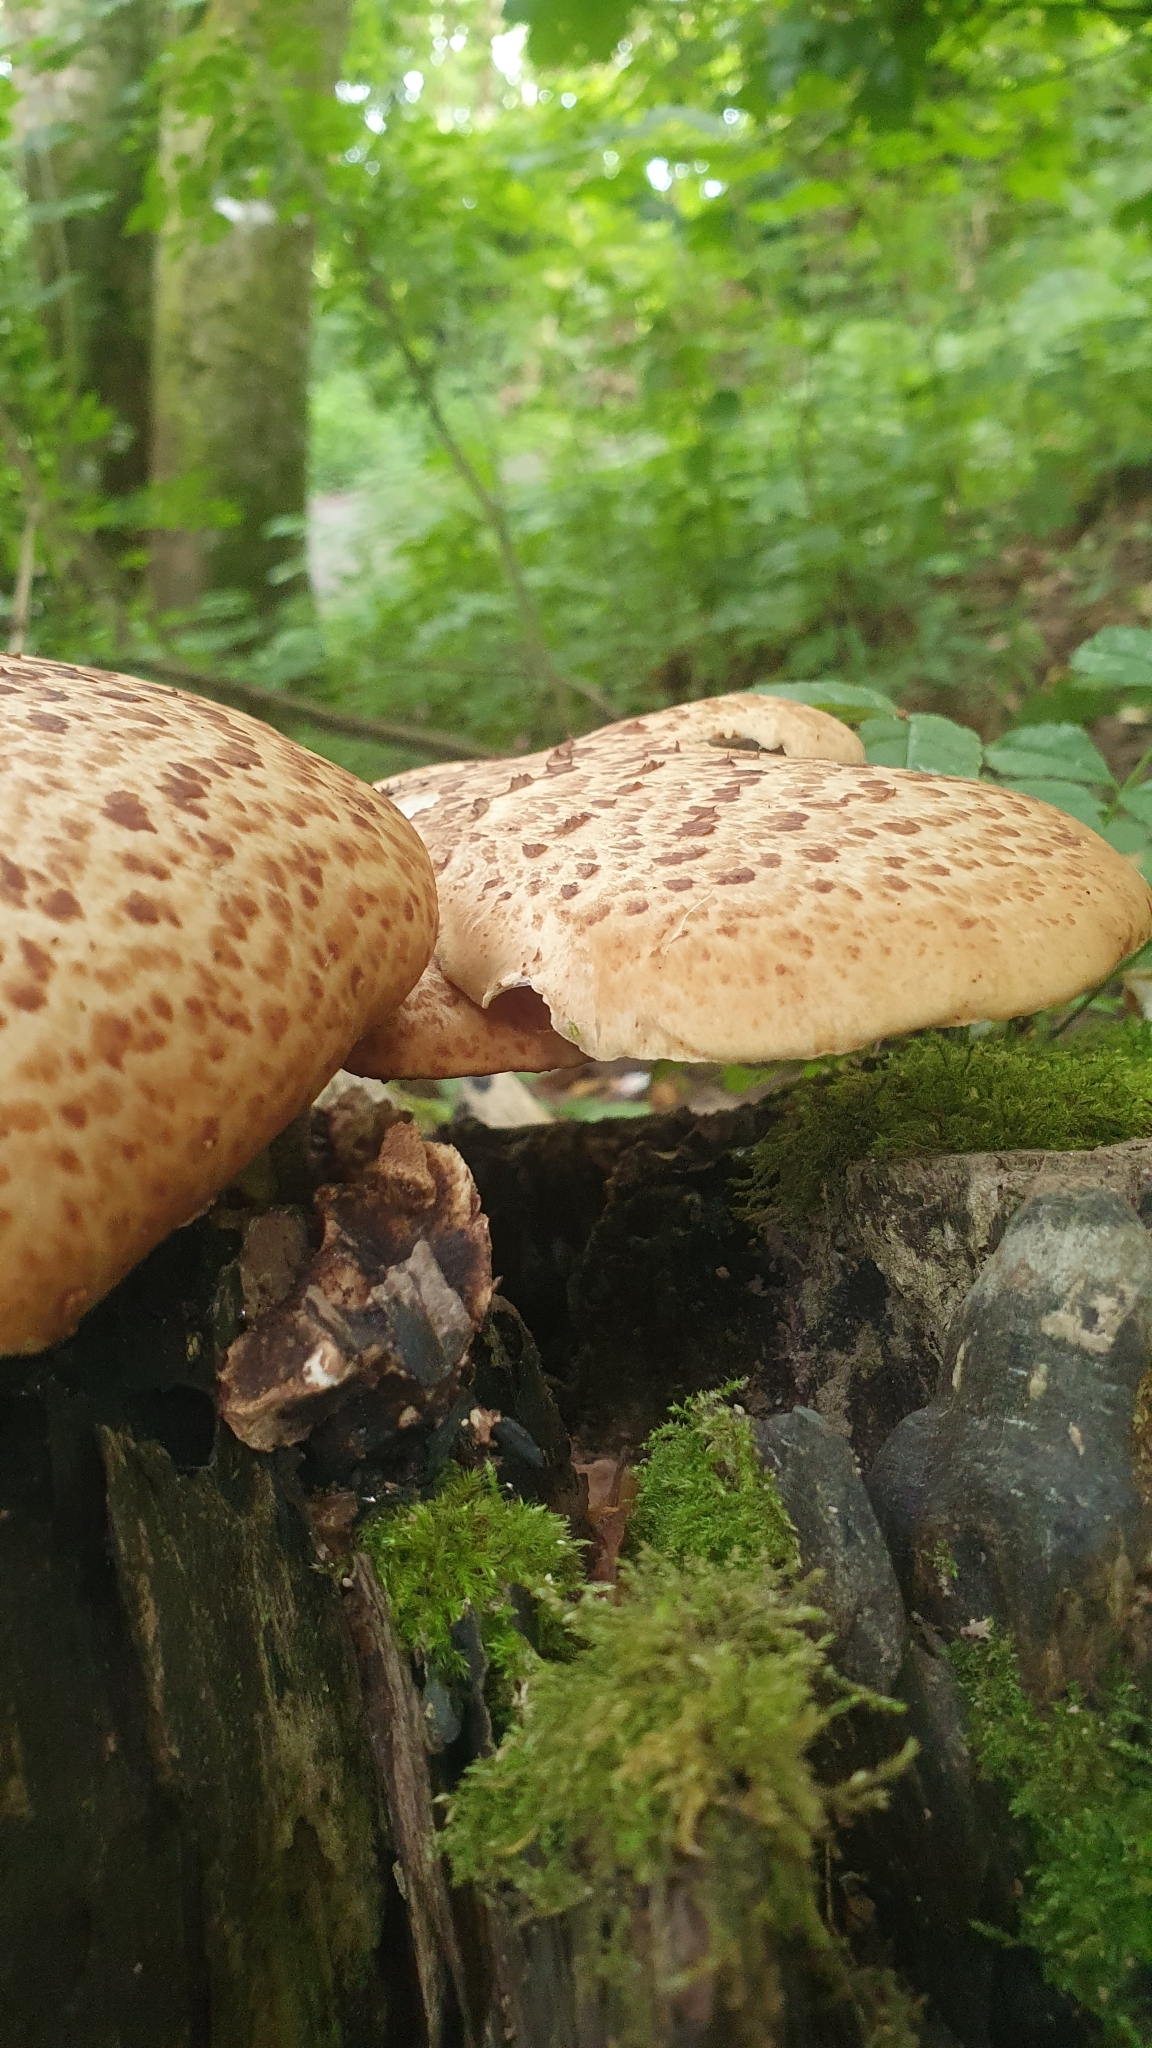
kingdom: Fungi
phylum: Basidiomycota
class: Agaricomycetes
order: Polyporales
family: Polyporaceae
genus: Cerioporus
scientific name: Cerioporus squamosus
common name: Dryad's saddle
